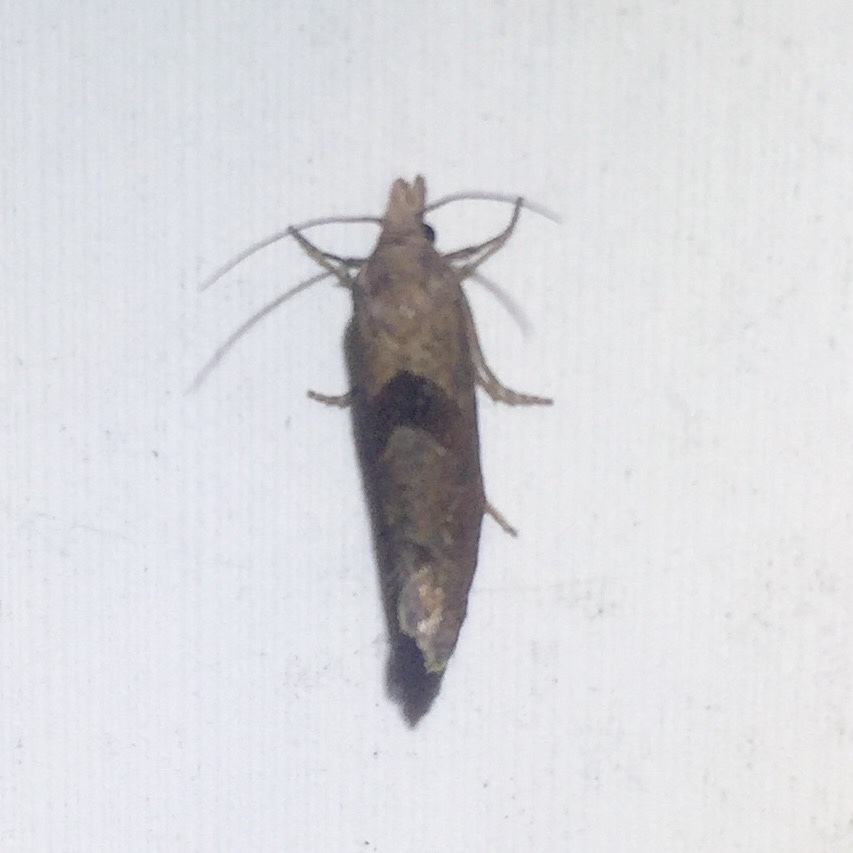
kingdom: Animalia
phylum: Arthropoda
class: Insecta
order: Lepidoptera
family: Tortricidae
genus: Pelochrista
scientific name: Pelochrista dorsisignatana
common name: Triangle-backed pelochrista moth
